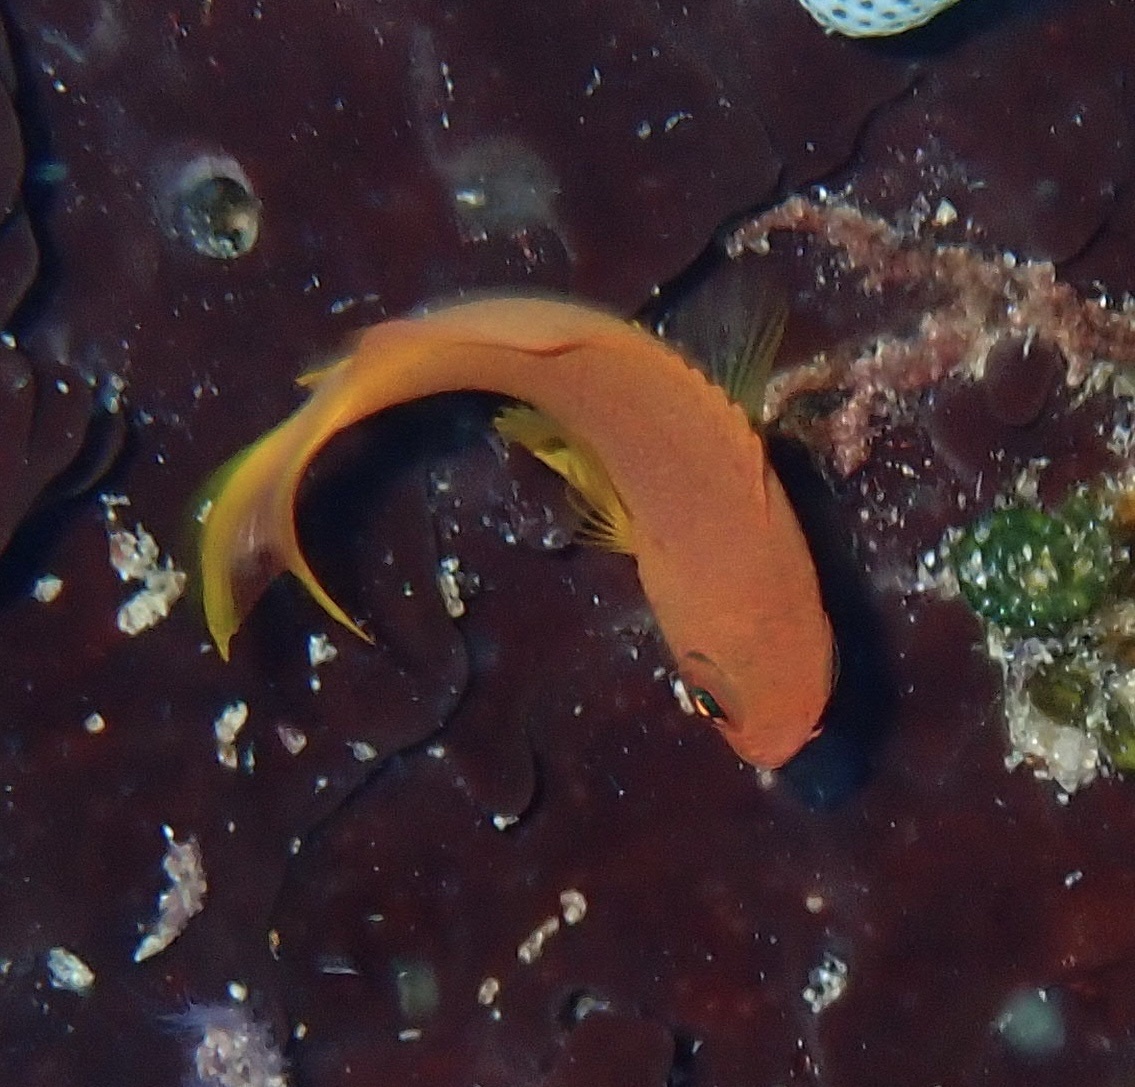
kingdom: Animalia
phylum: Chordata
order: Perciformes
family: Serranidae
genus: Pseudanthias
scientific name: Pseudanthias squamipinnis
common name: Scalefin anthias
